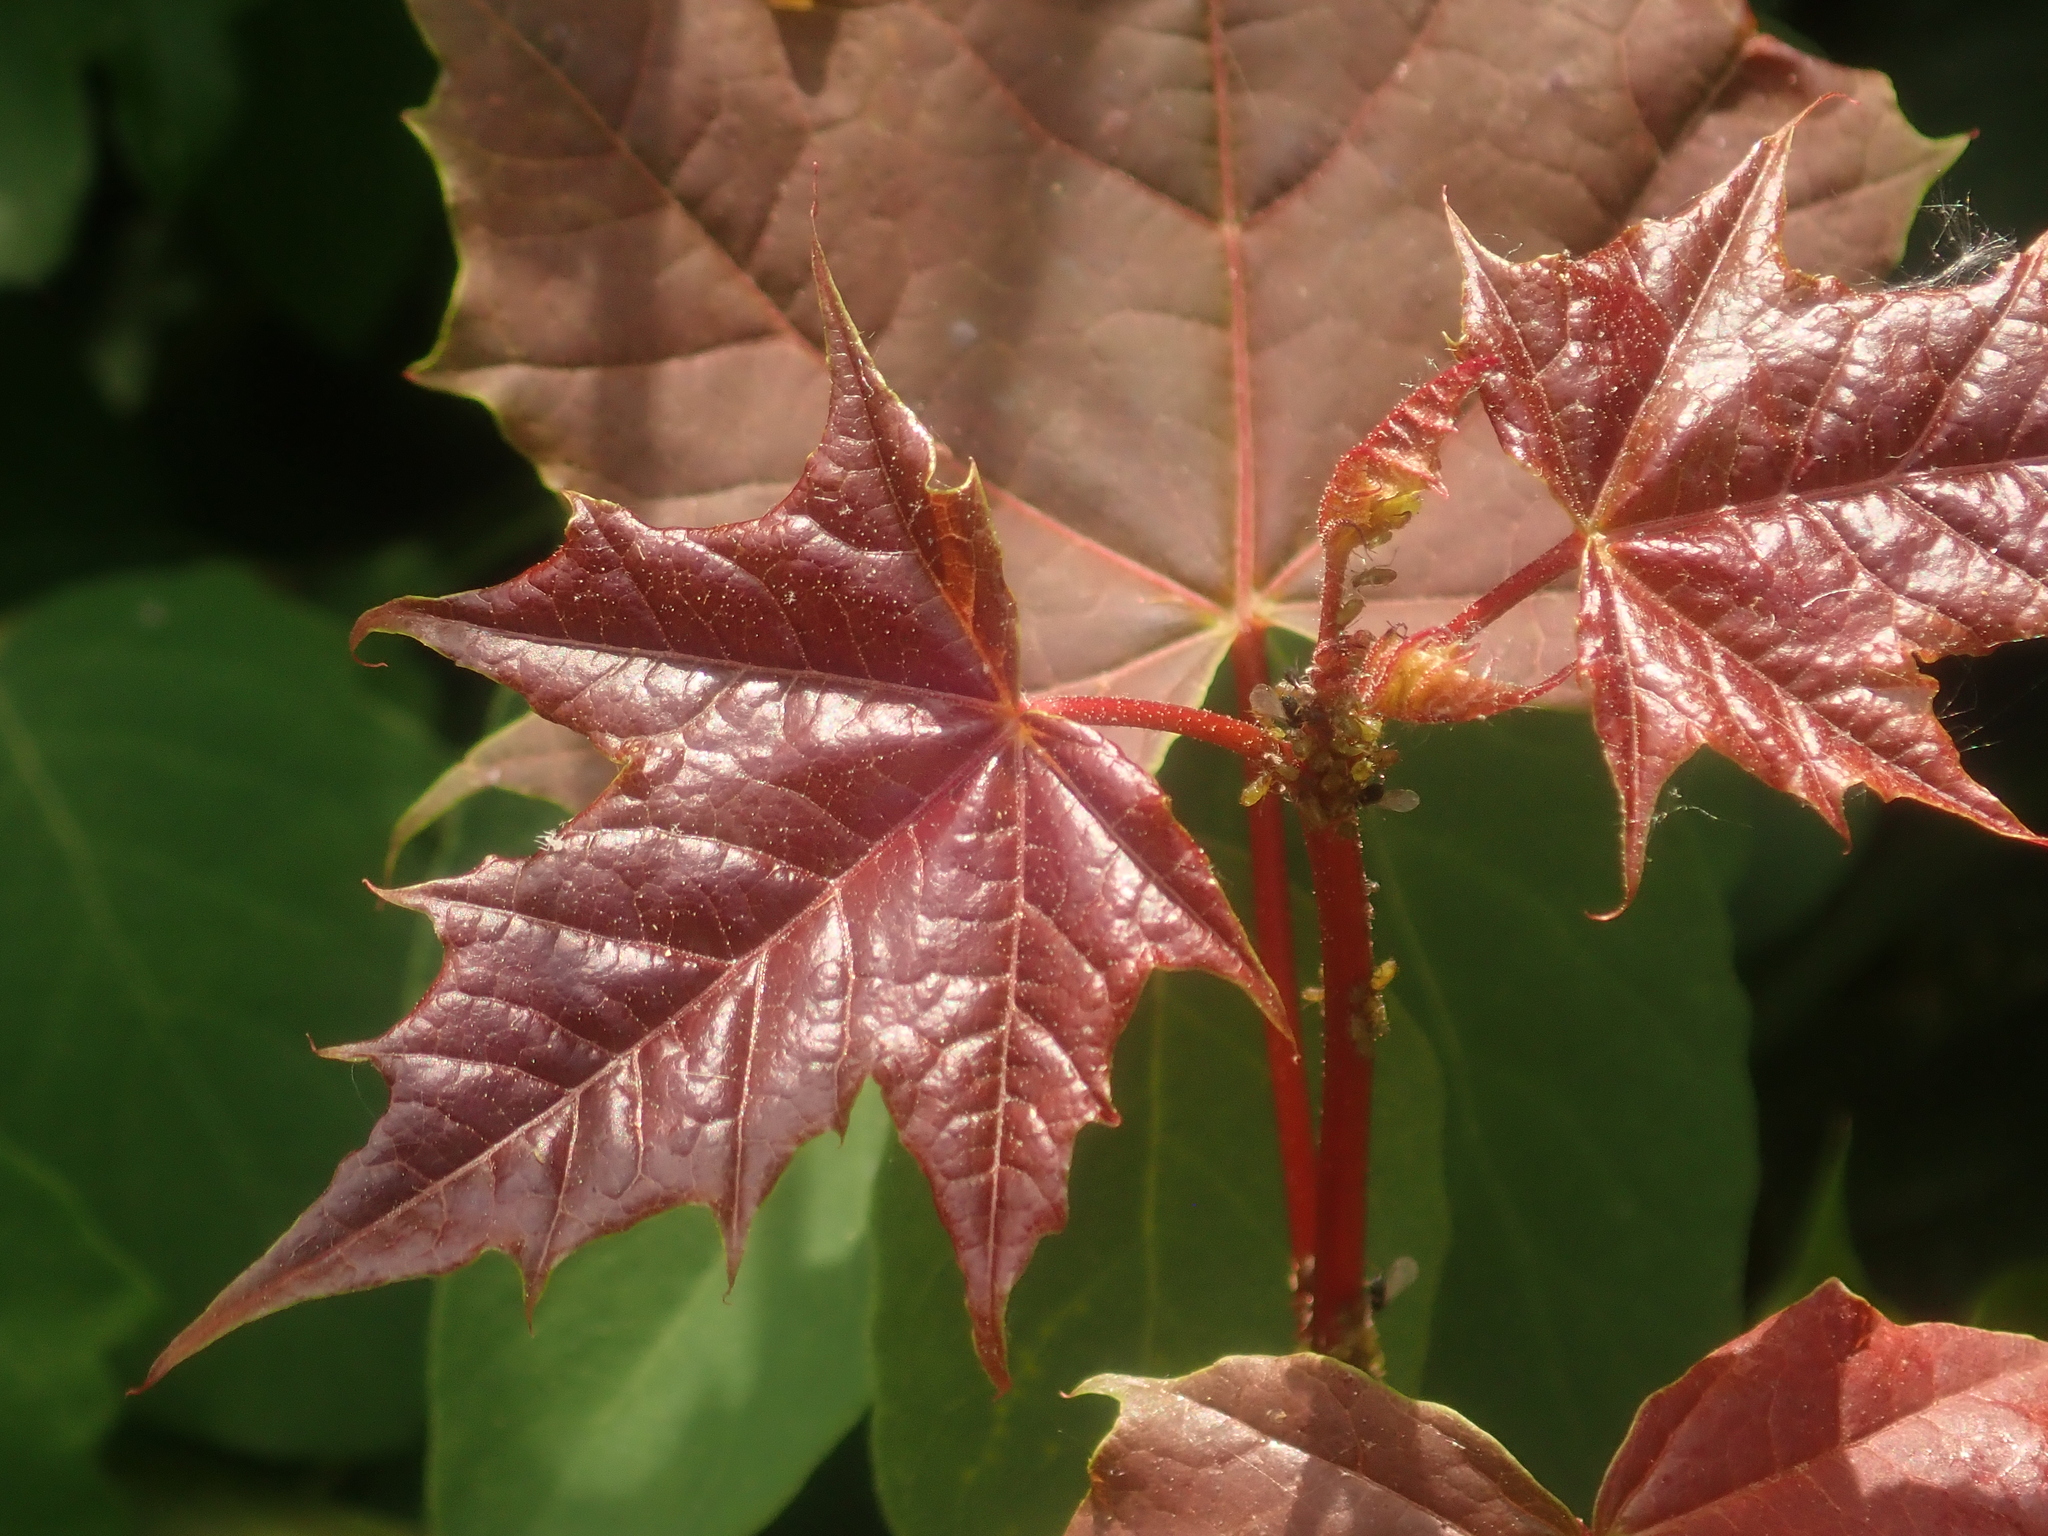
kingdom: Plantae
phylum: Tracheophyta
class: Magnoliopsida
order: Sapindales
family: Sapindaceae
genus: Acer
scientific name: Acer platanoides
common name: Norway maple
